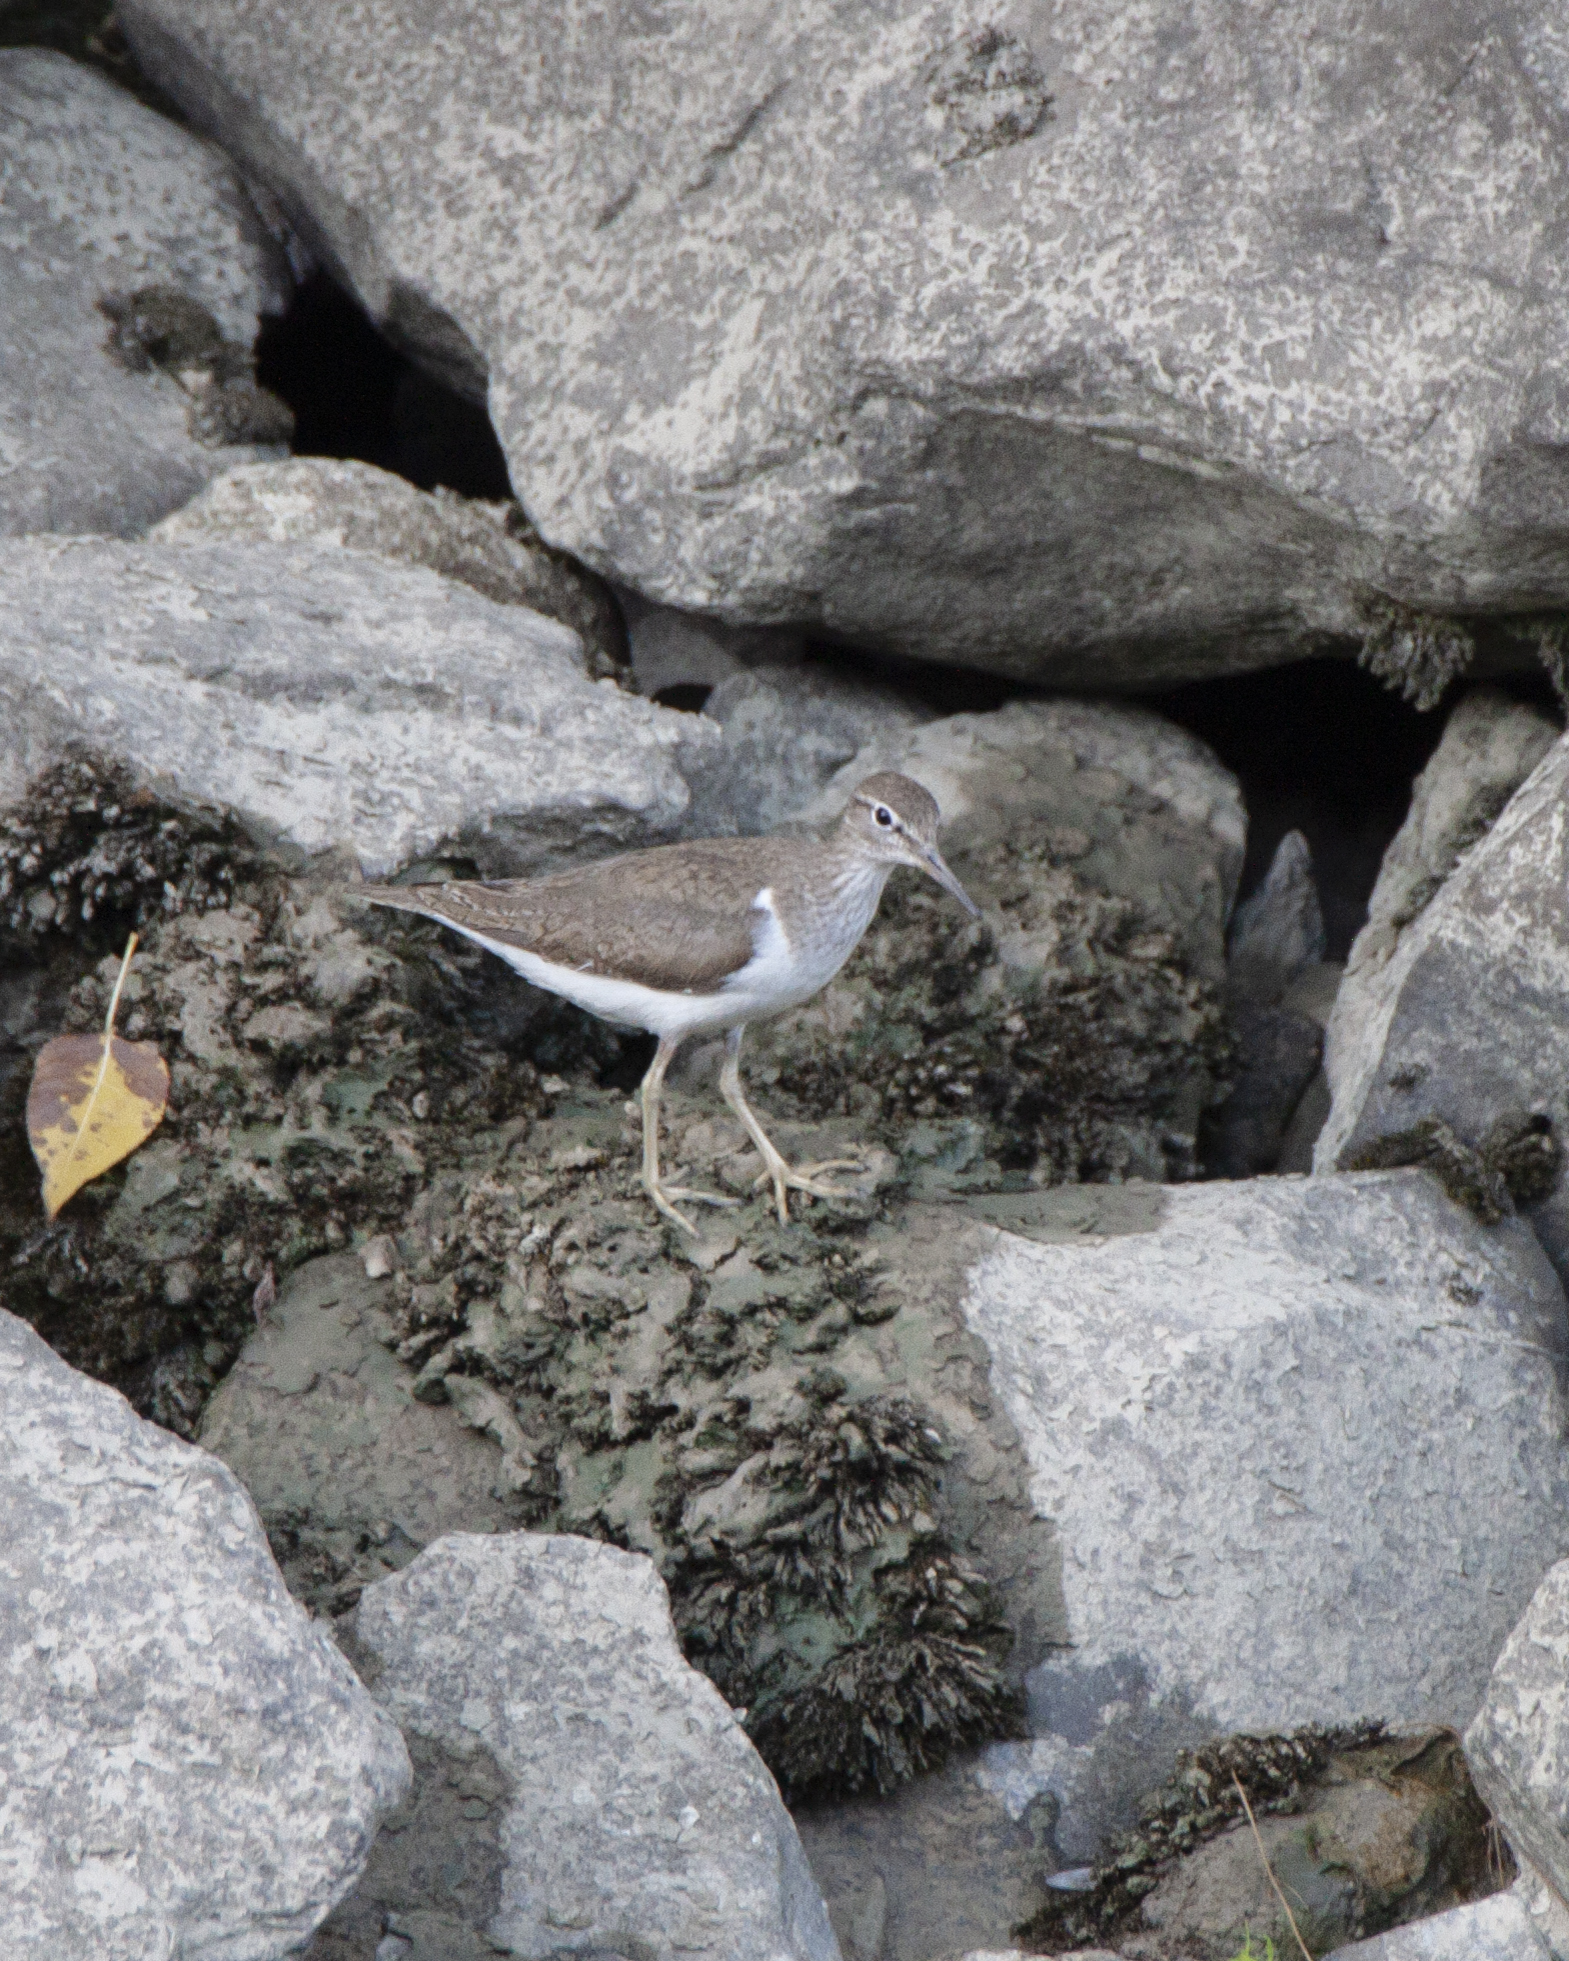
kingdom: Animalia
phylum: Chordata
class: Aves
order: Charadriiformes
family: Scolopacidae
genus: Actitis
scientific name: Actitis hypoleucos
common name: Common sandpiper
